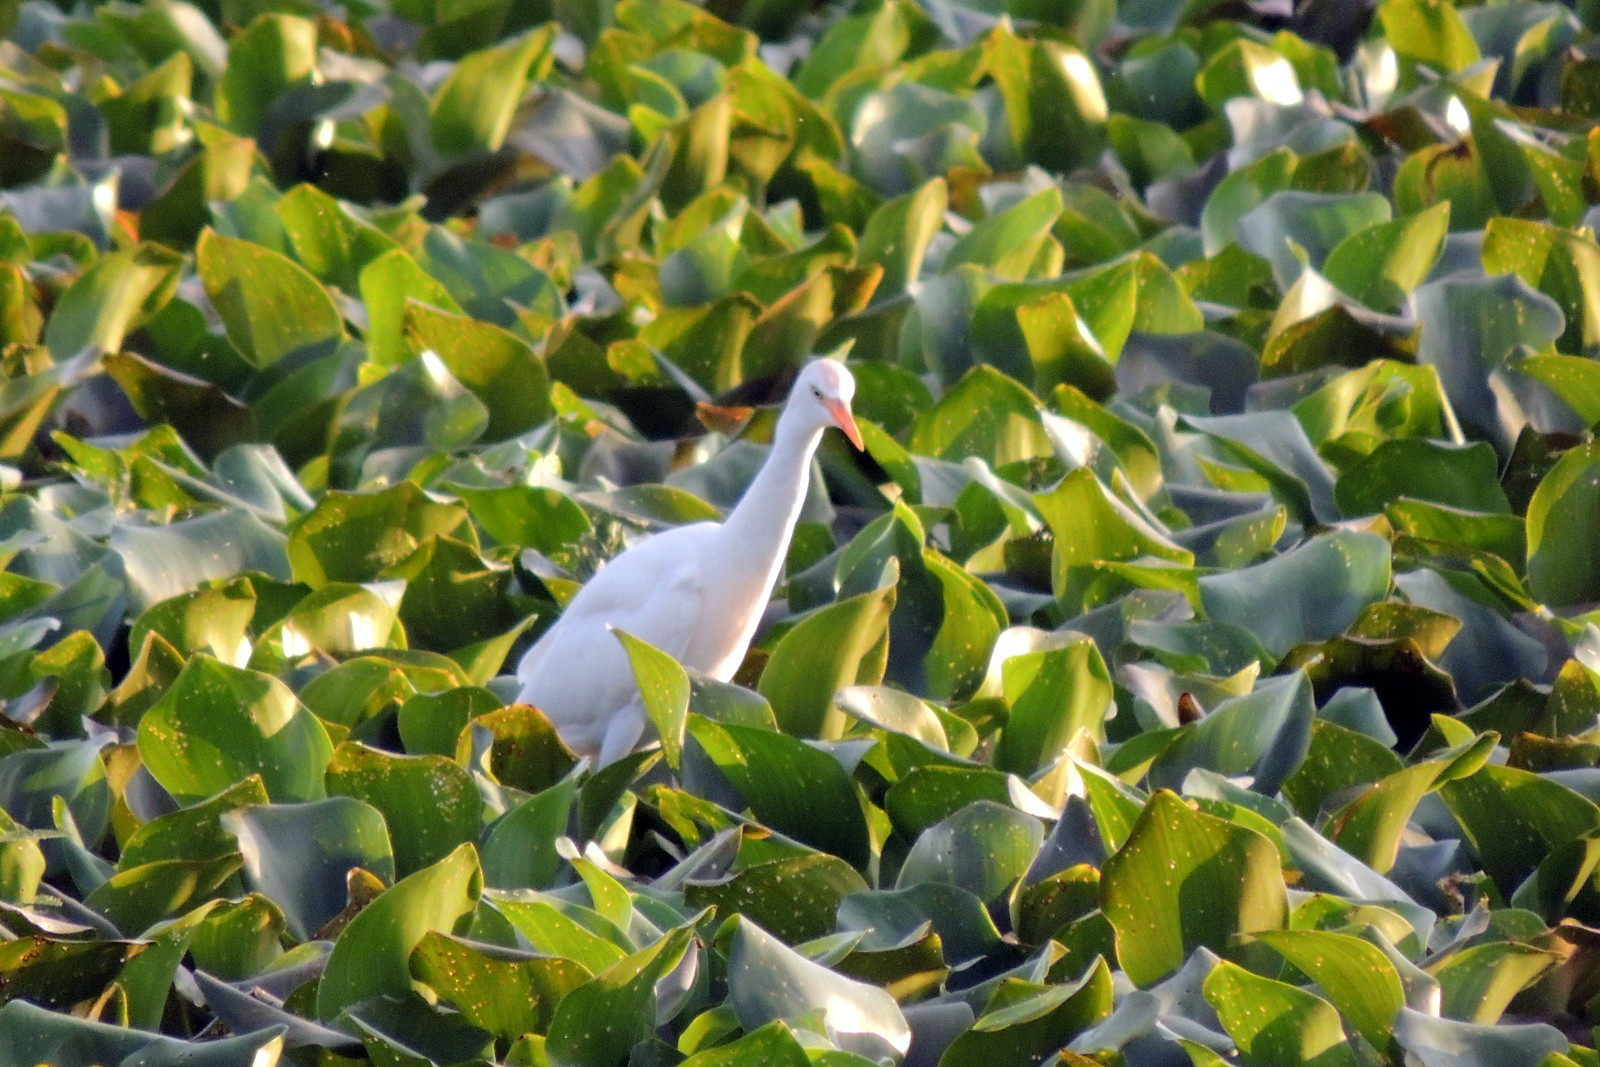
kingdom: Animalia
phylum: Chordata
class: Aves
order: Pelecaniformes
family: Ardeidae
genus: Bubulcus
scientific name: Bubulcus ibis
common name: Cattle egret
